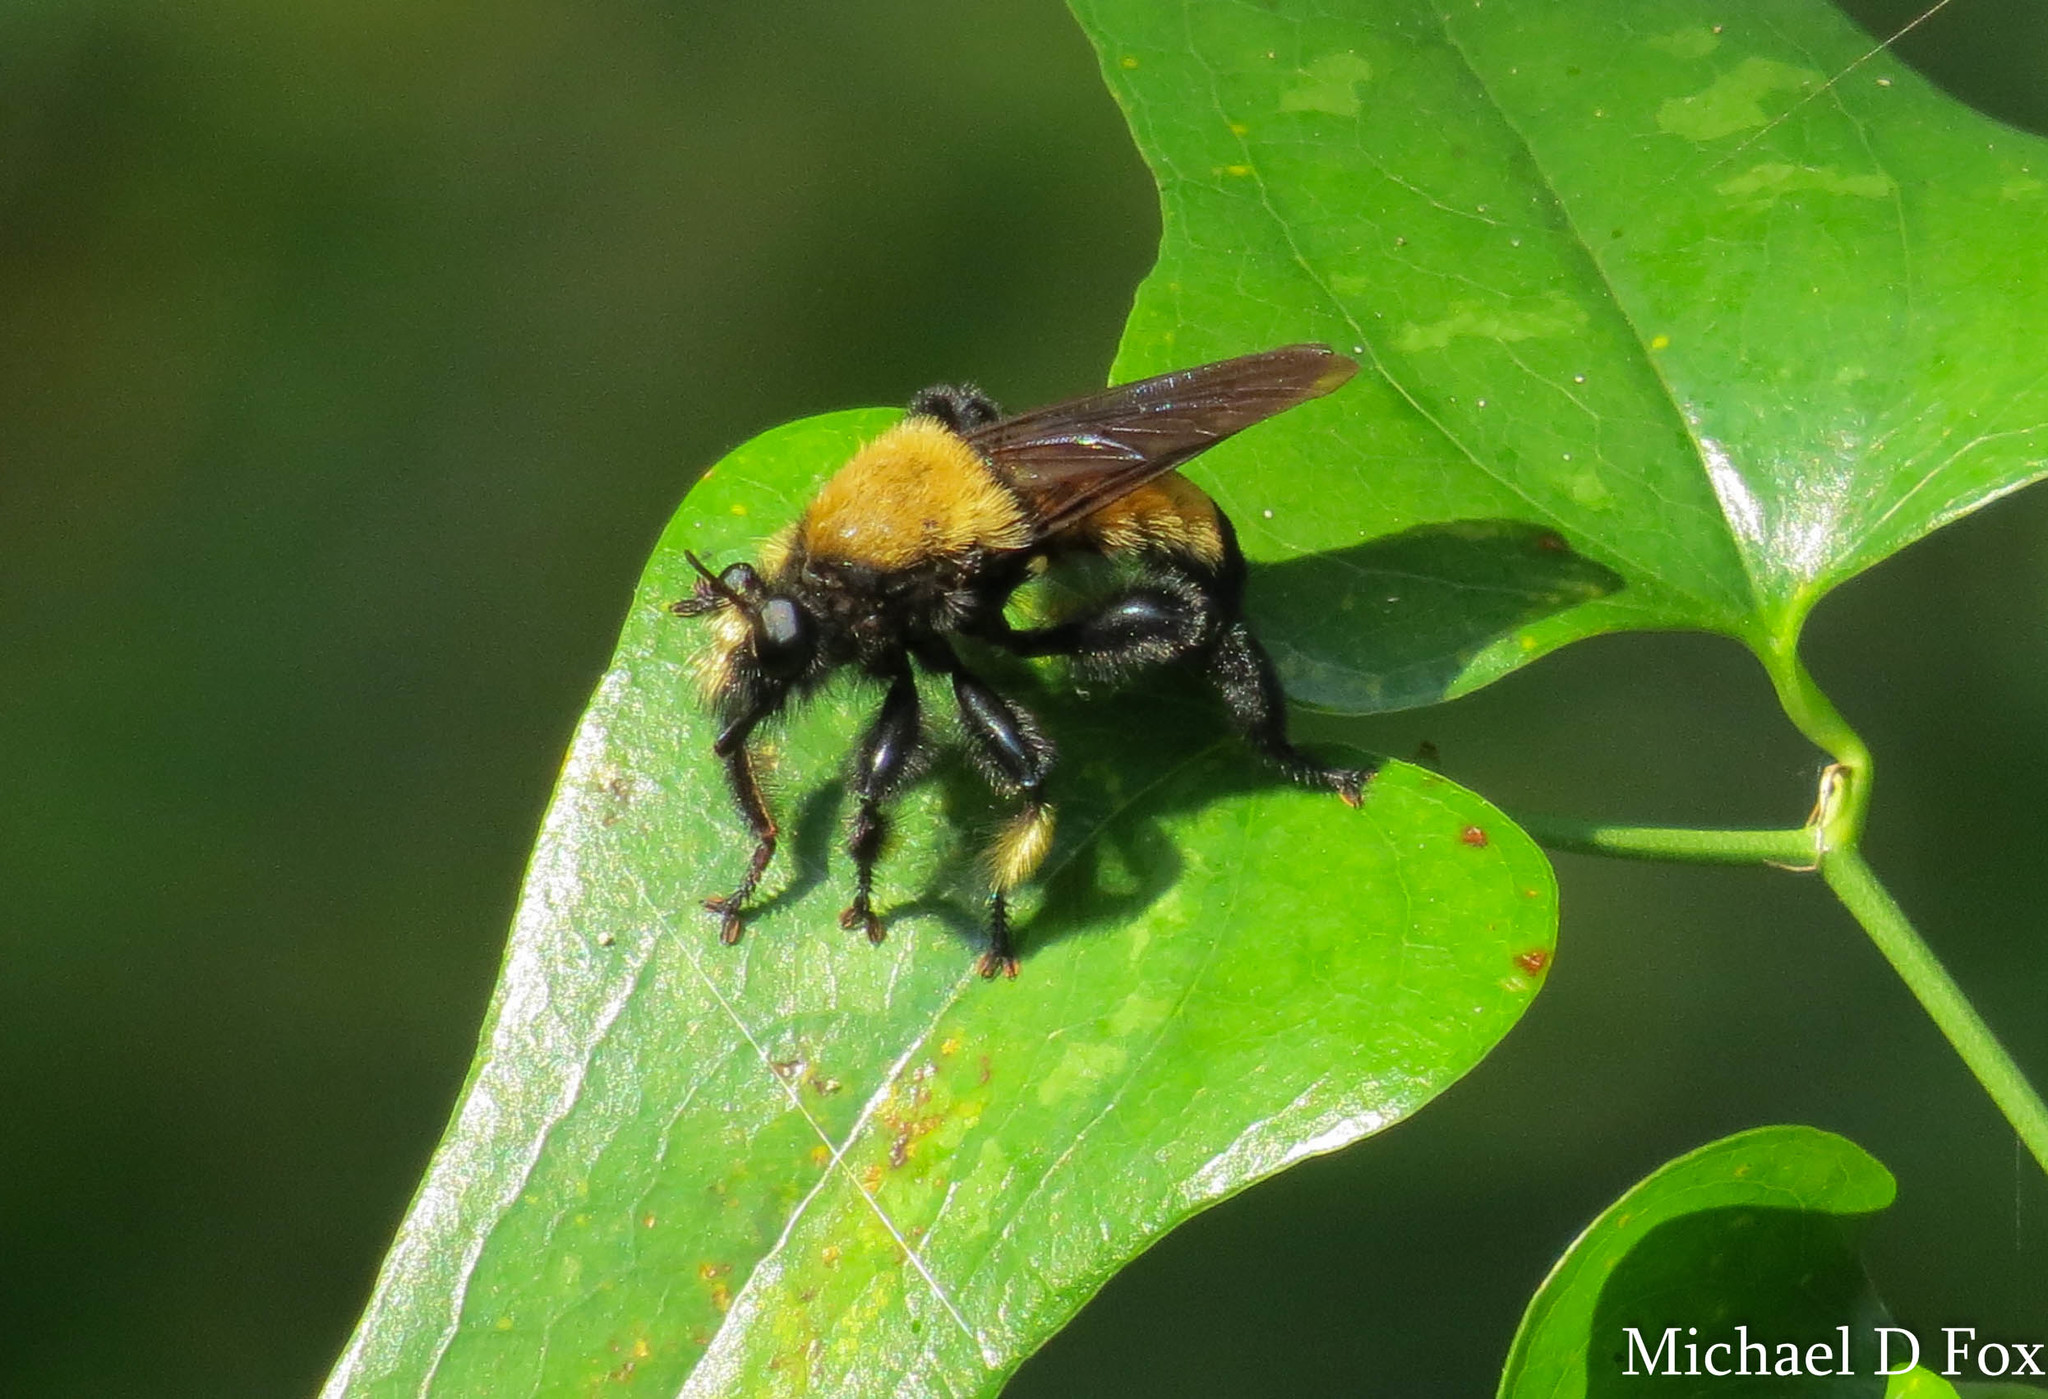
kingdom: Animalia
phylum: Arthropoda
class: Insecta
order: Diptera
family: Asilidae
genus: Laphria
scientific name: Laphria macquarti
